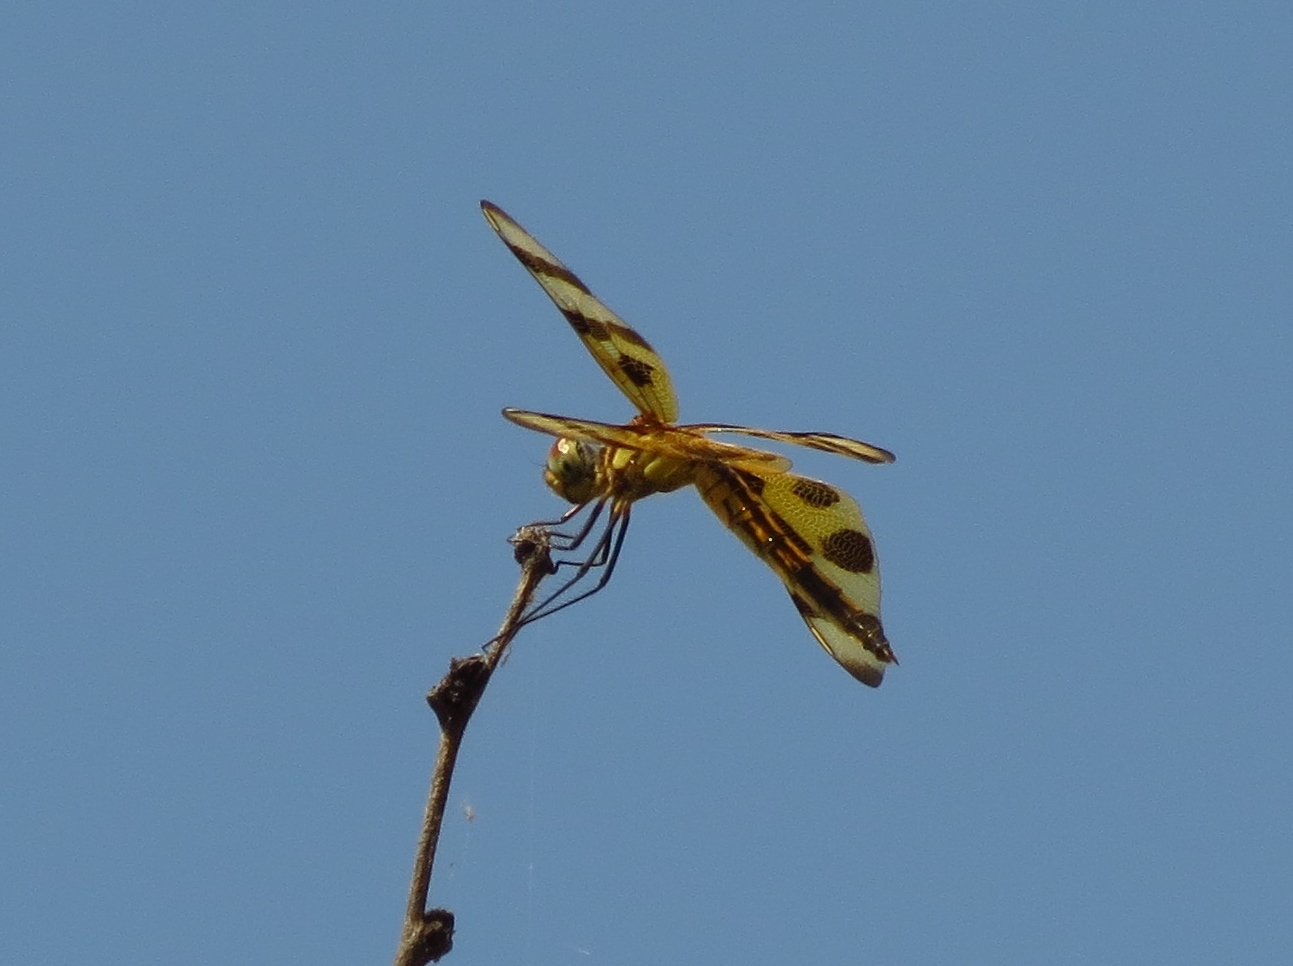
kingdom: Animalia
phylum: Arthropoda
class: Insecta
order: Odonata
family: Libellulidae
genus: Celithemis
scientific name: Celithemis eponina
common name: Halloween pennant
